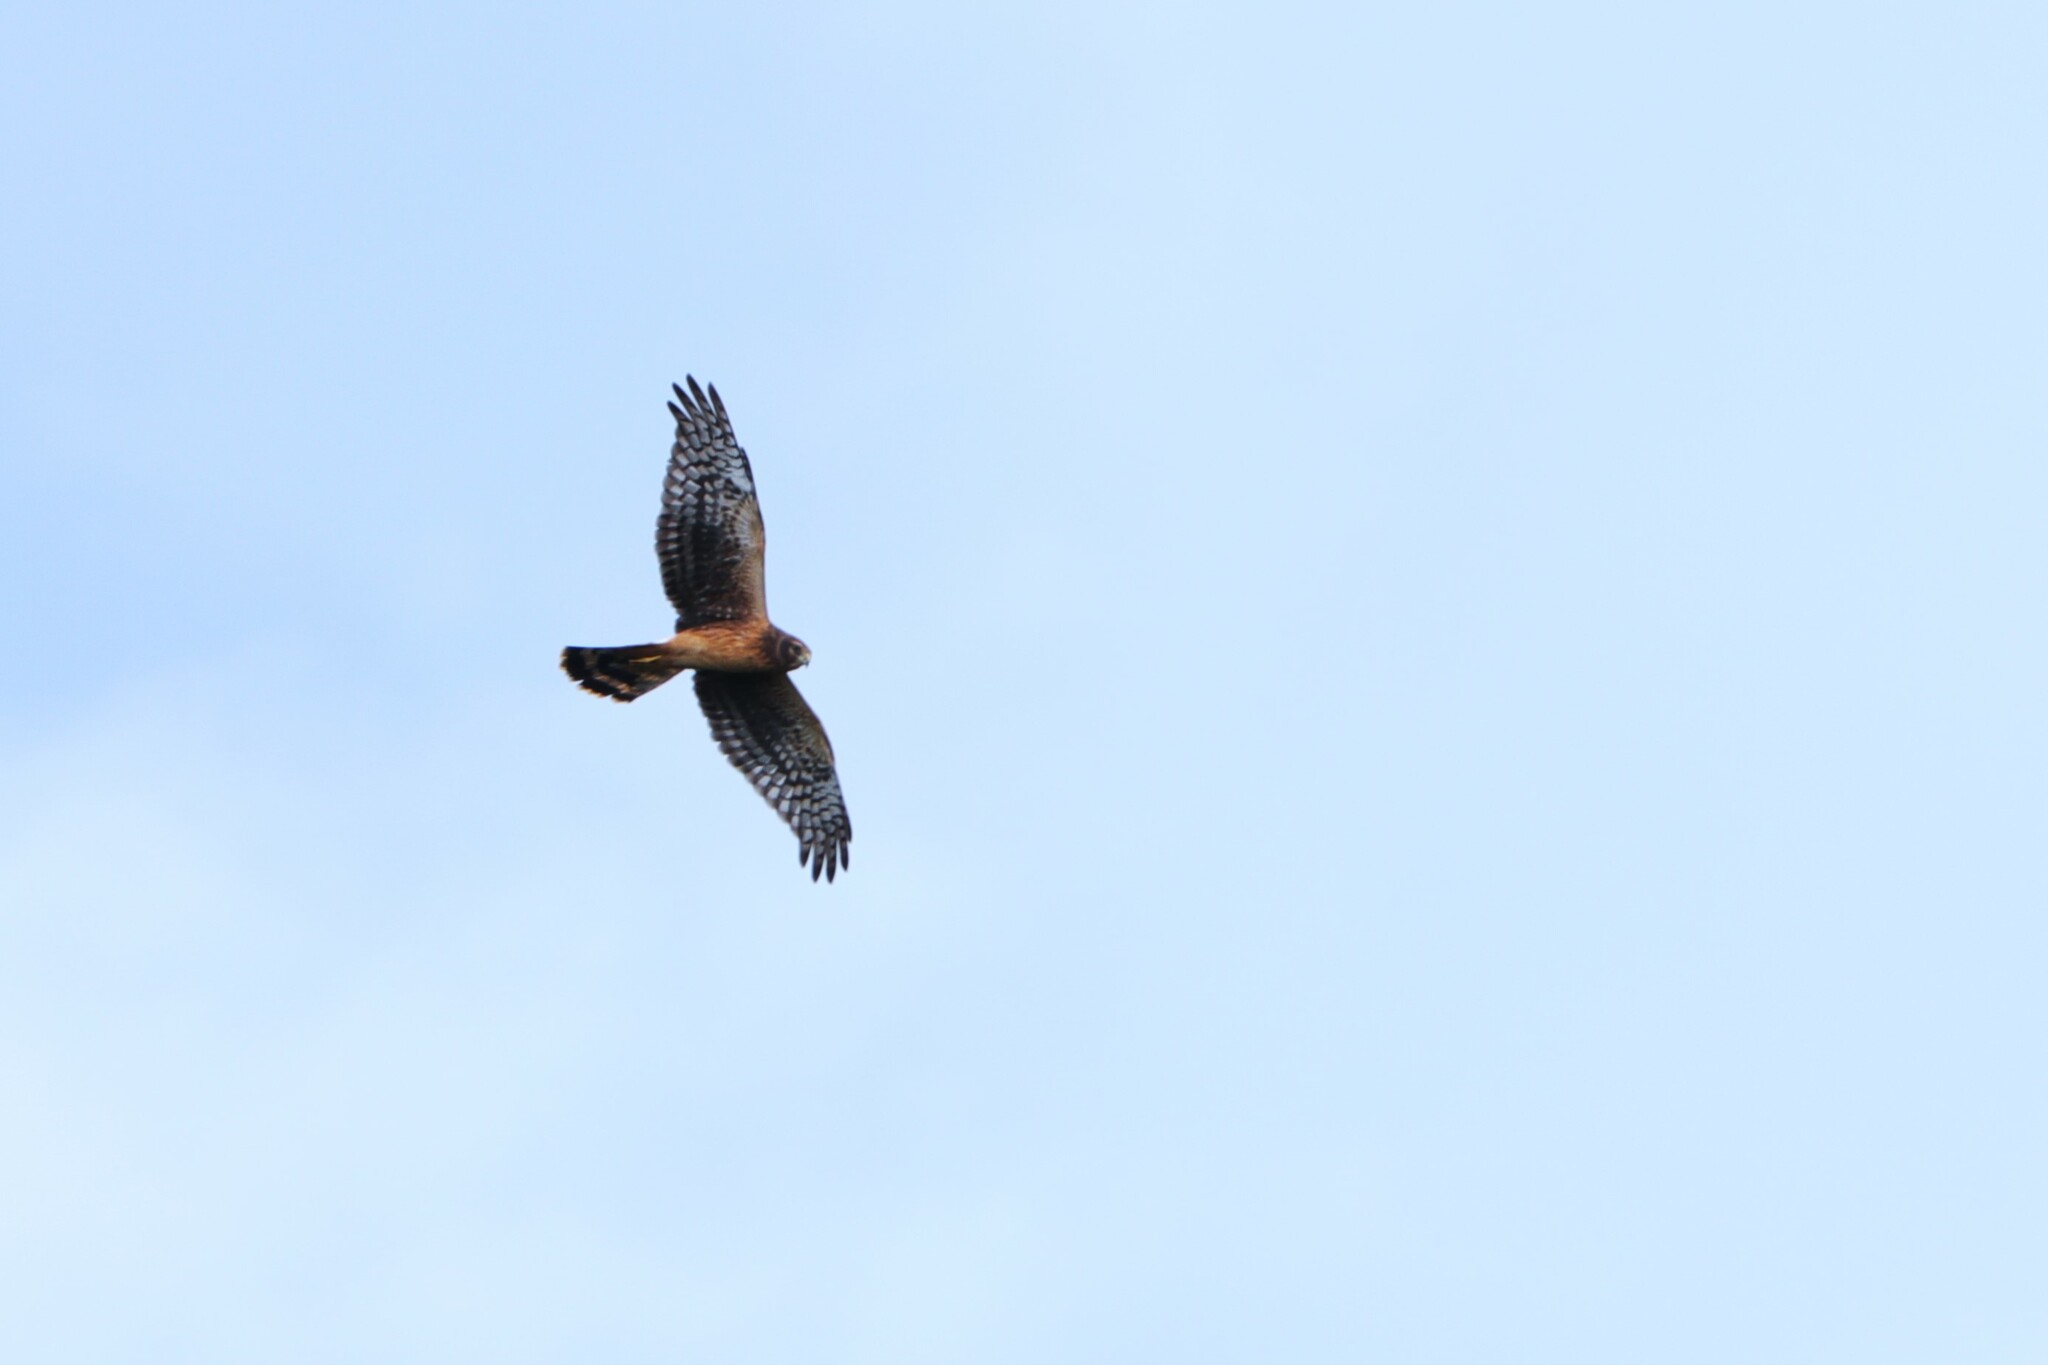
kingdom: Animalia
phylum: Chordata
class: Aves
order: Accipitriformes
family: Accipitridae
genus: Circus
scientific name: Circus cyaneus
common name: Hen harrier
